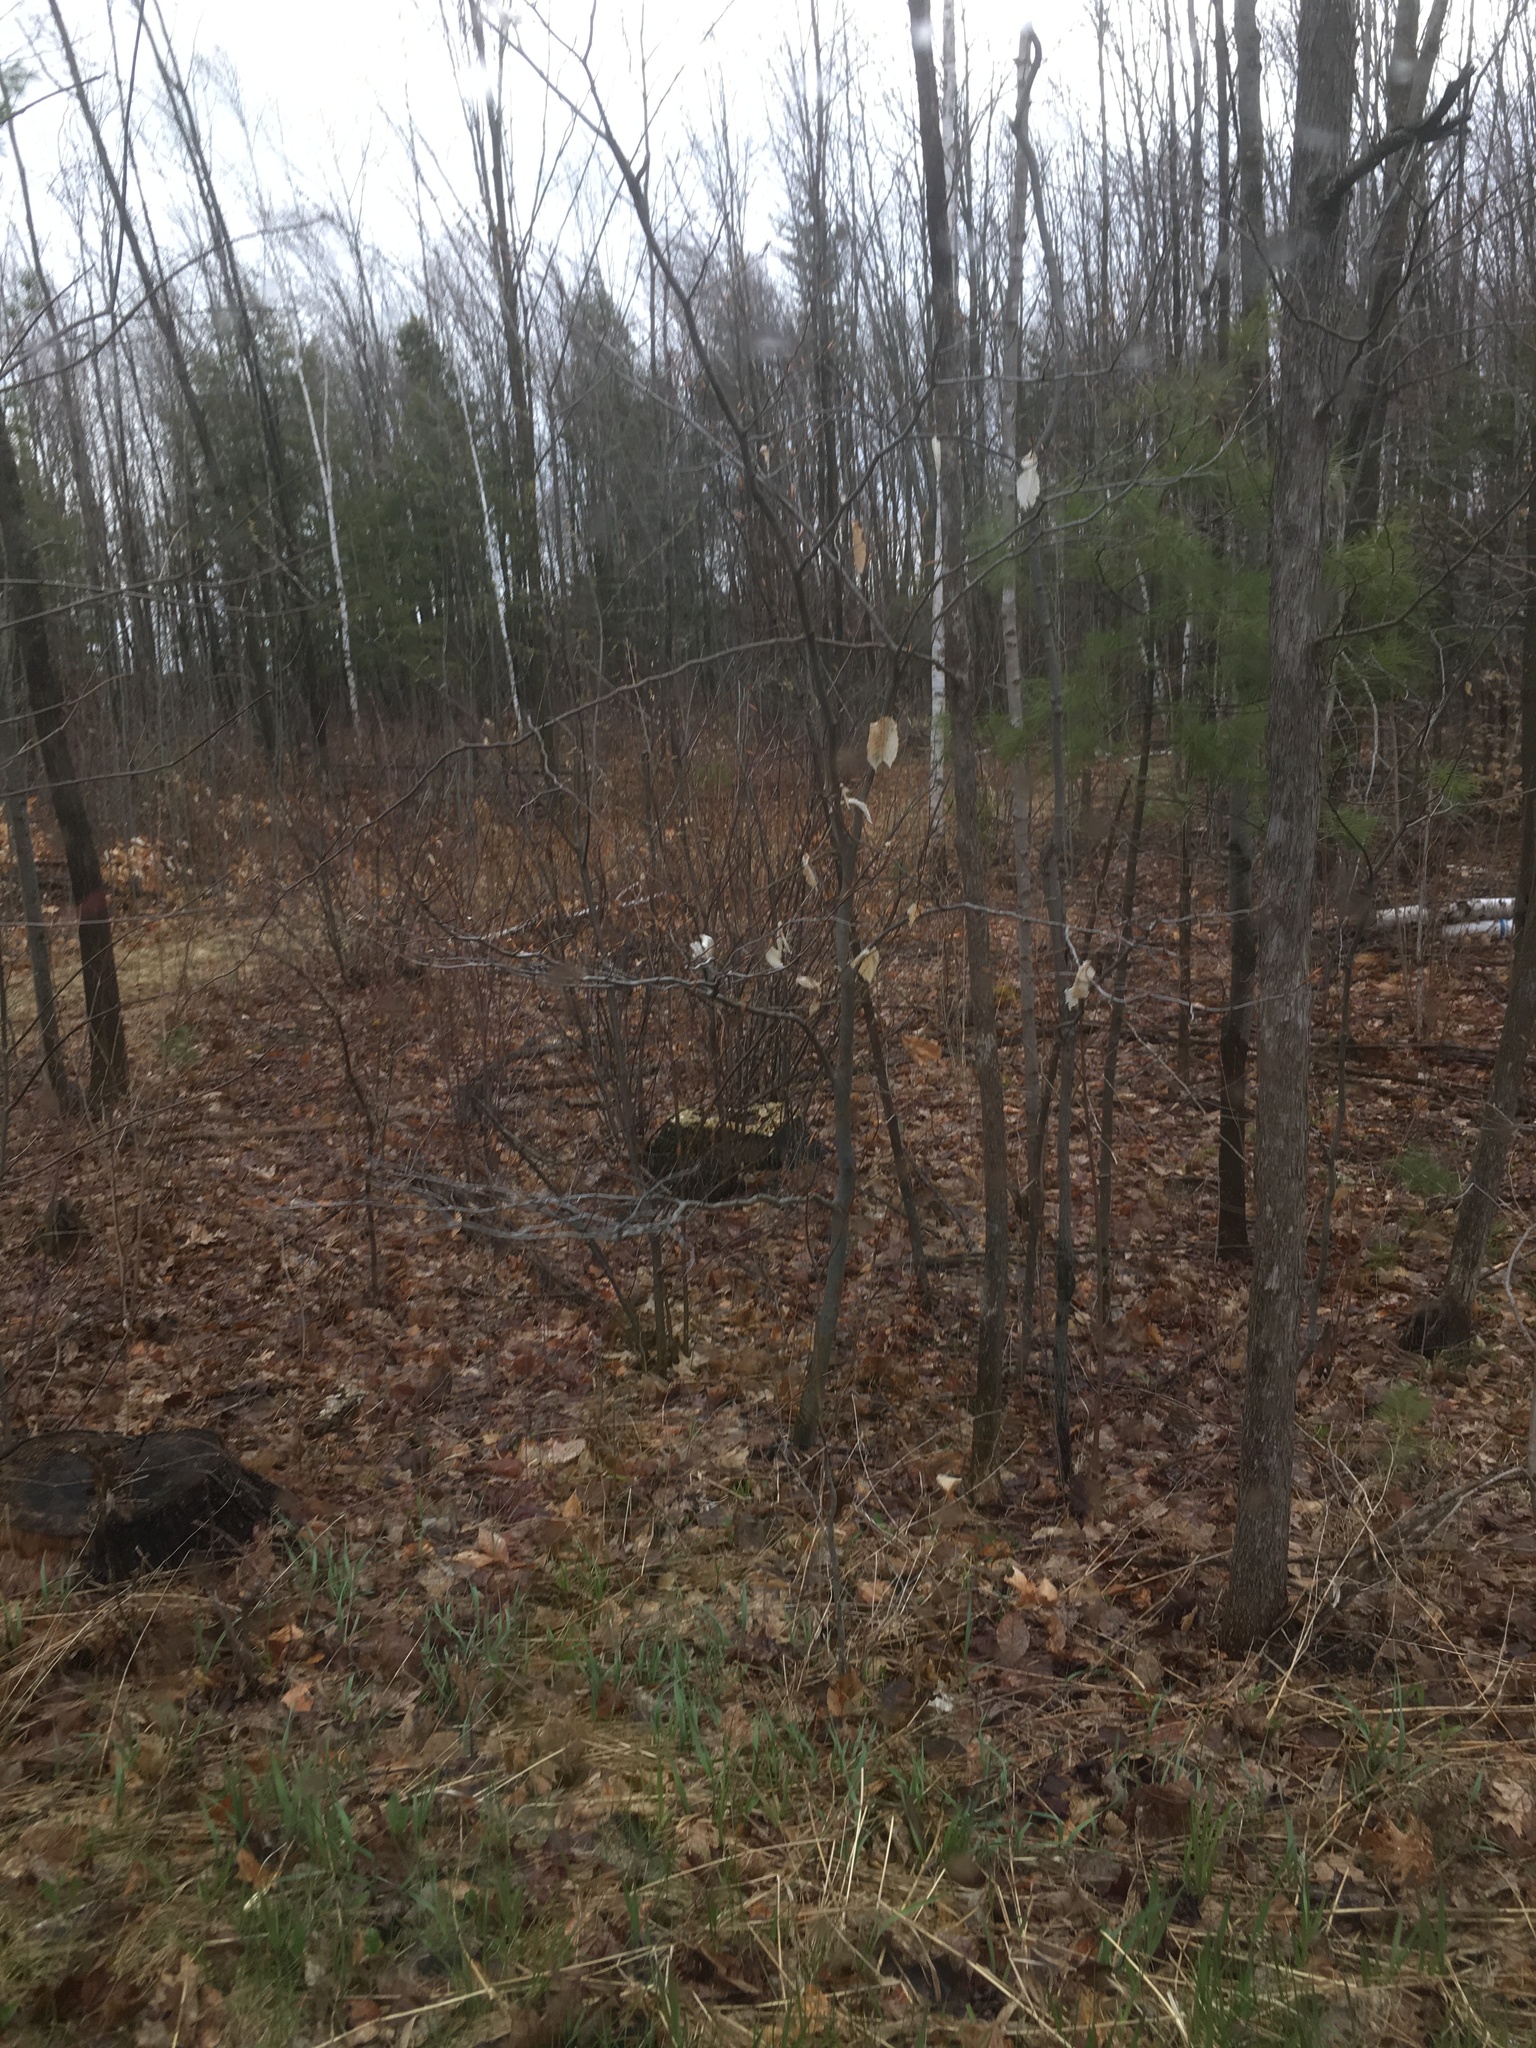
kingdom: Plantae
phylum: Tracheophyta
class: Magnoliopsida
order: Fagales
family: Fagaceae
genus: Fagus
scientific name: Fagus grandifolia
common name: American beech
